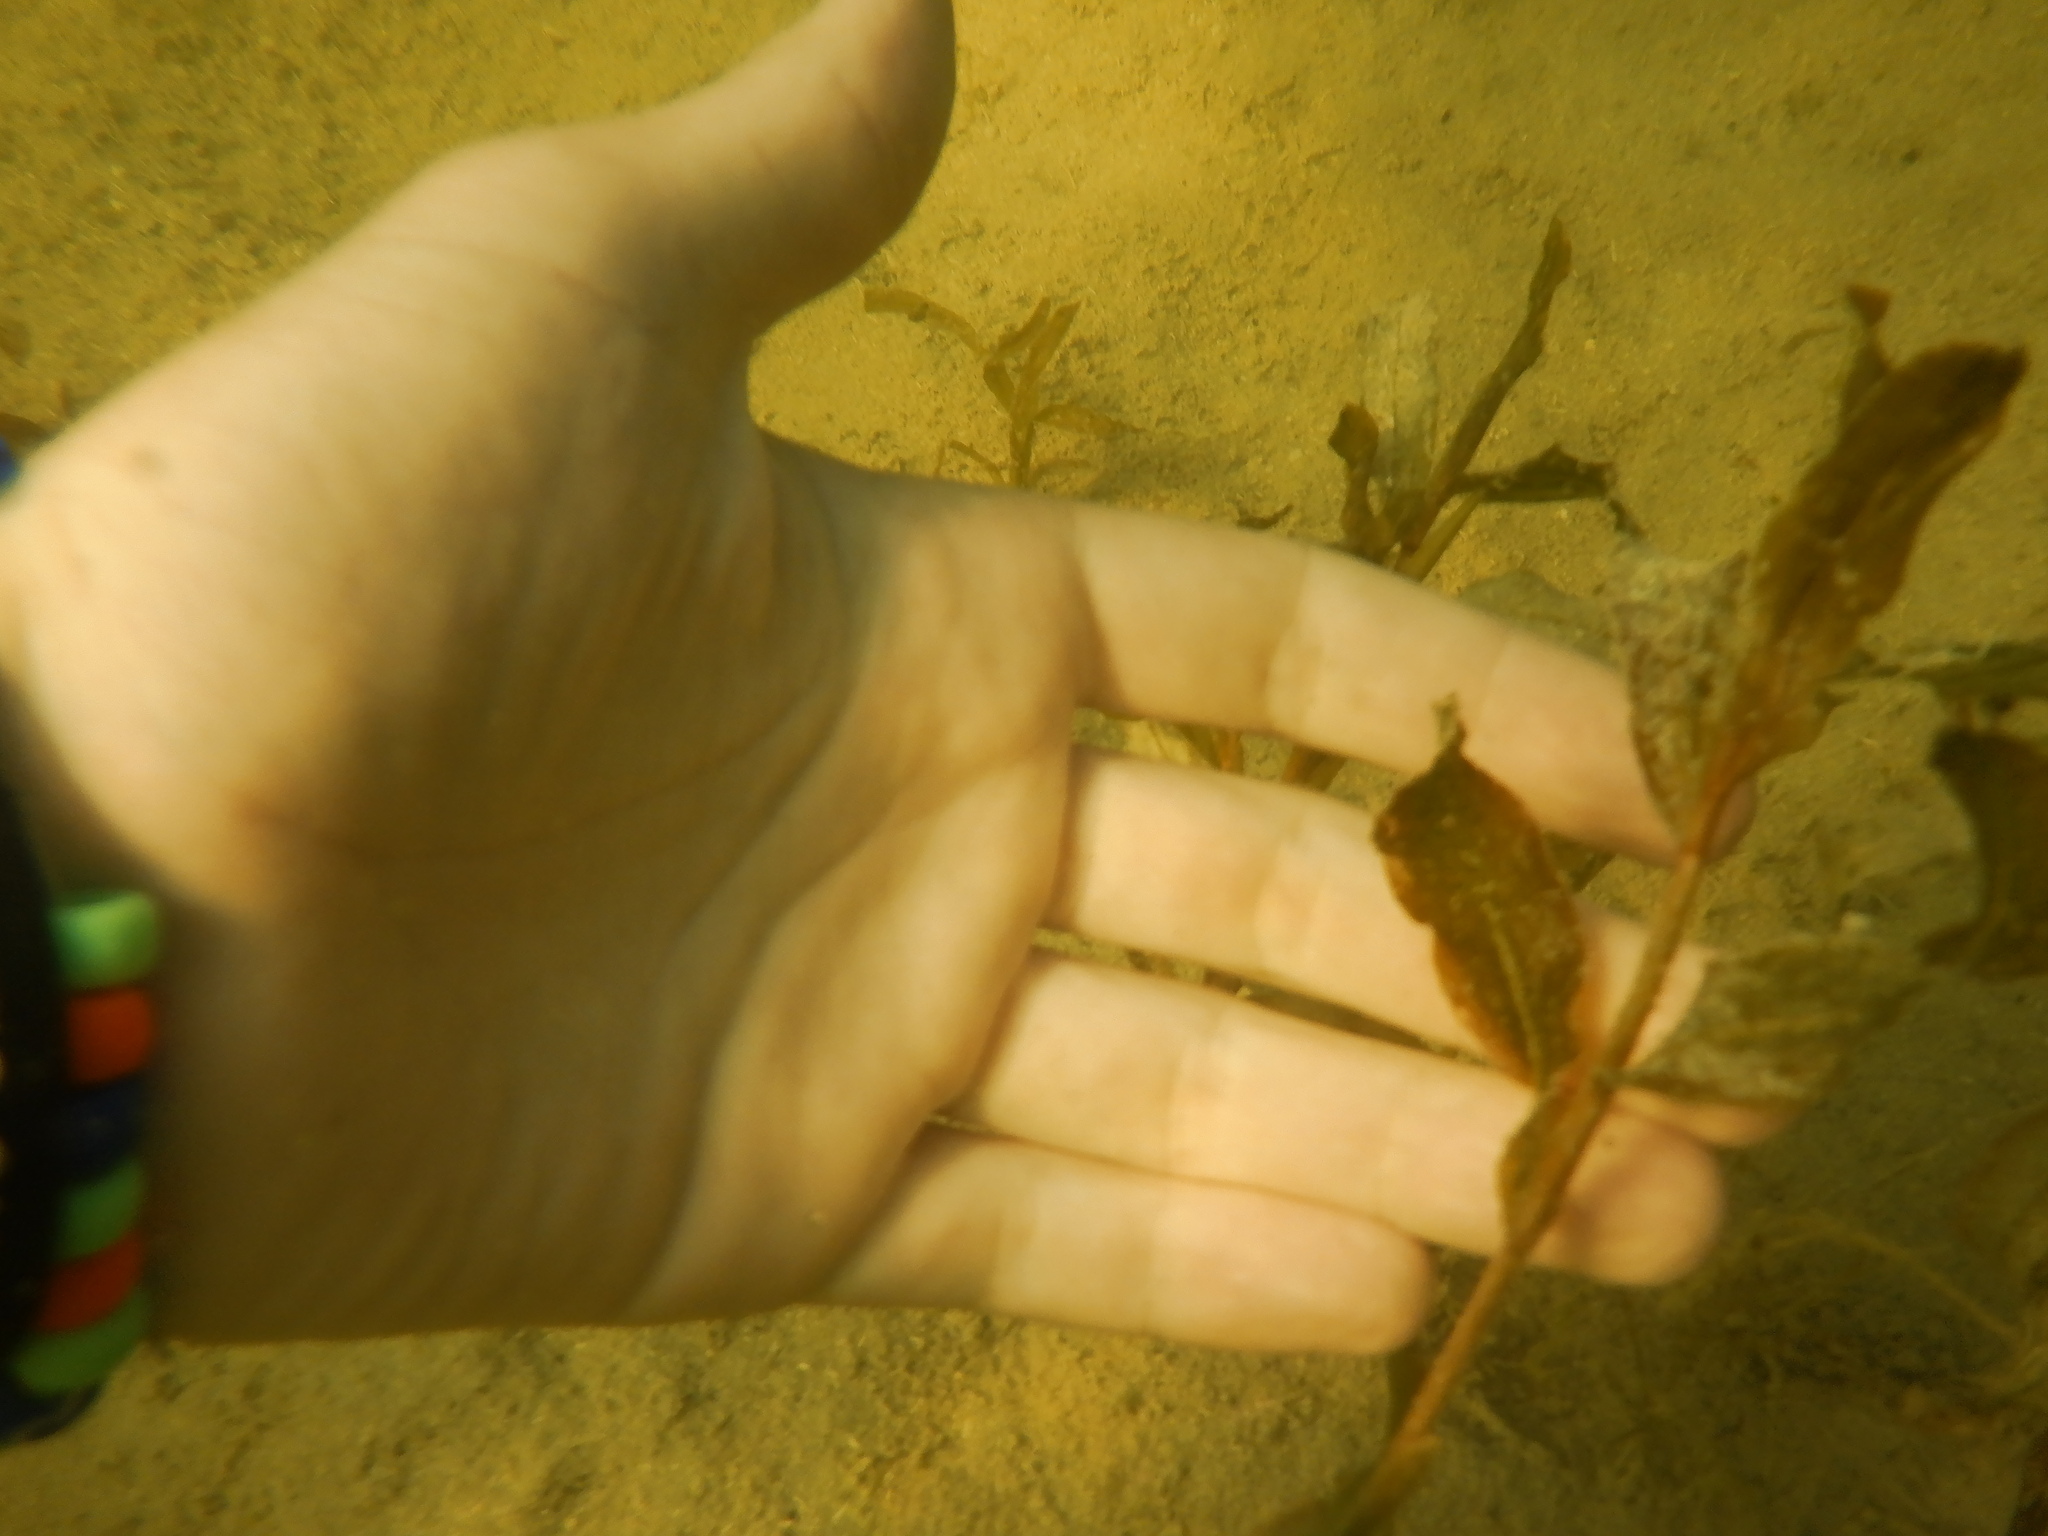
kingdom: Plantae
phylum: Tracheophyta
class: Liliopsida
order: Alismatales
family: Potamogetonaceae
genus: Potamogeton
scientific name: Potamogeton illinoensis
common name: Illinois pondweed
